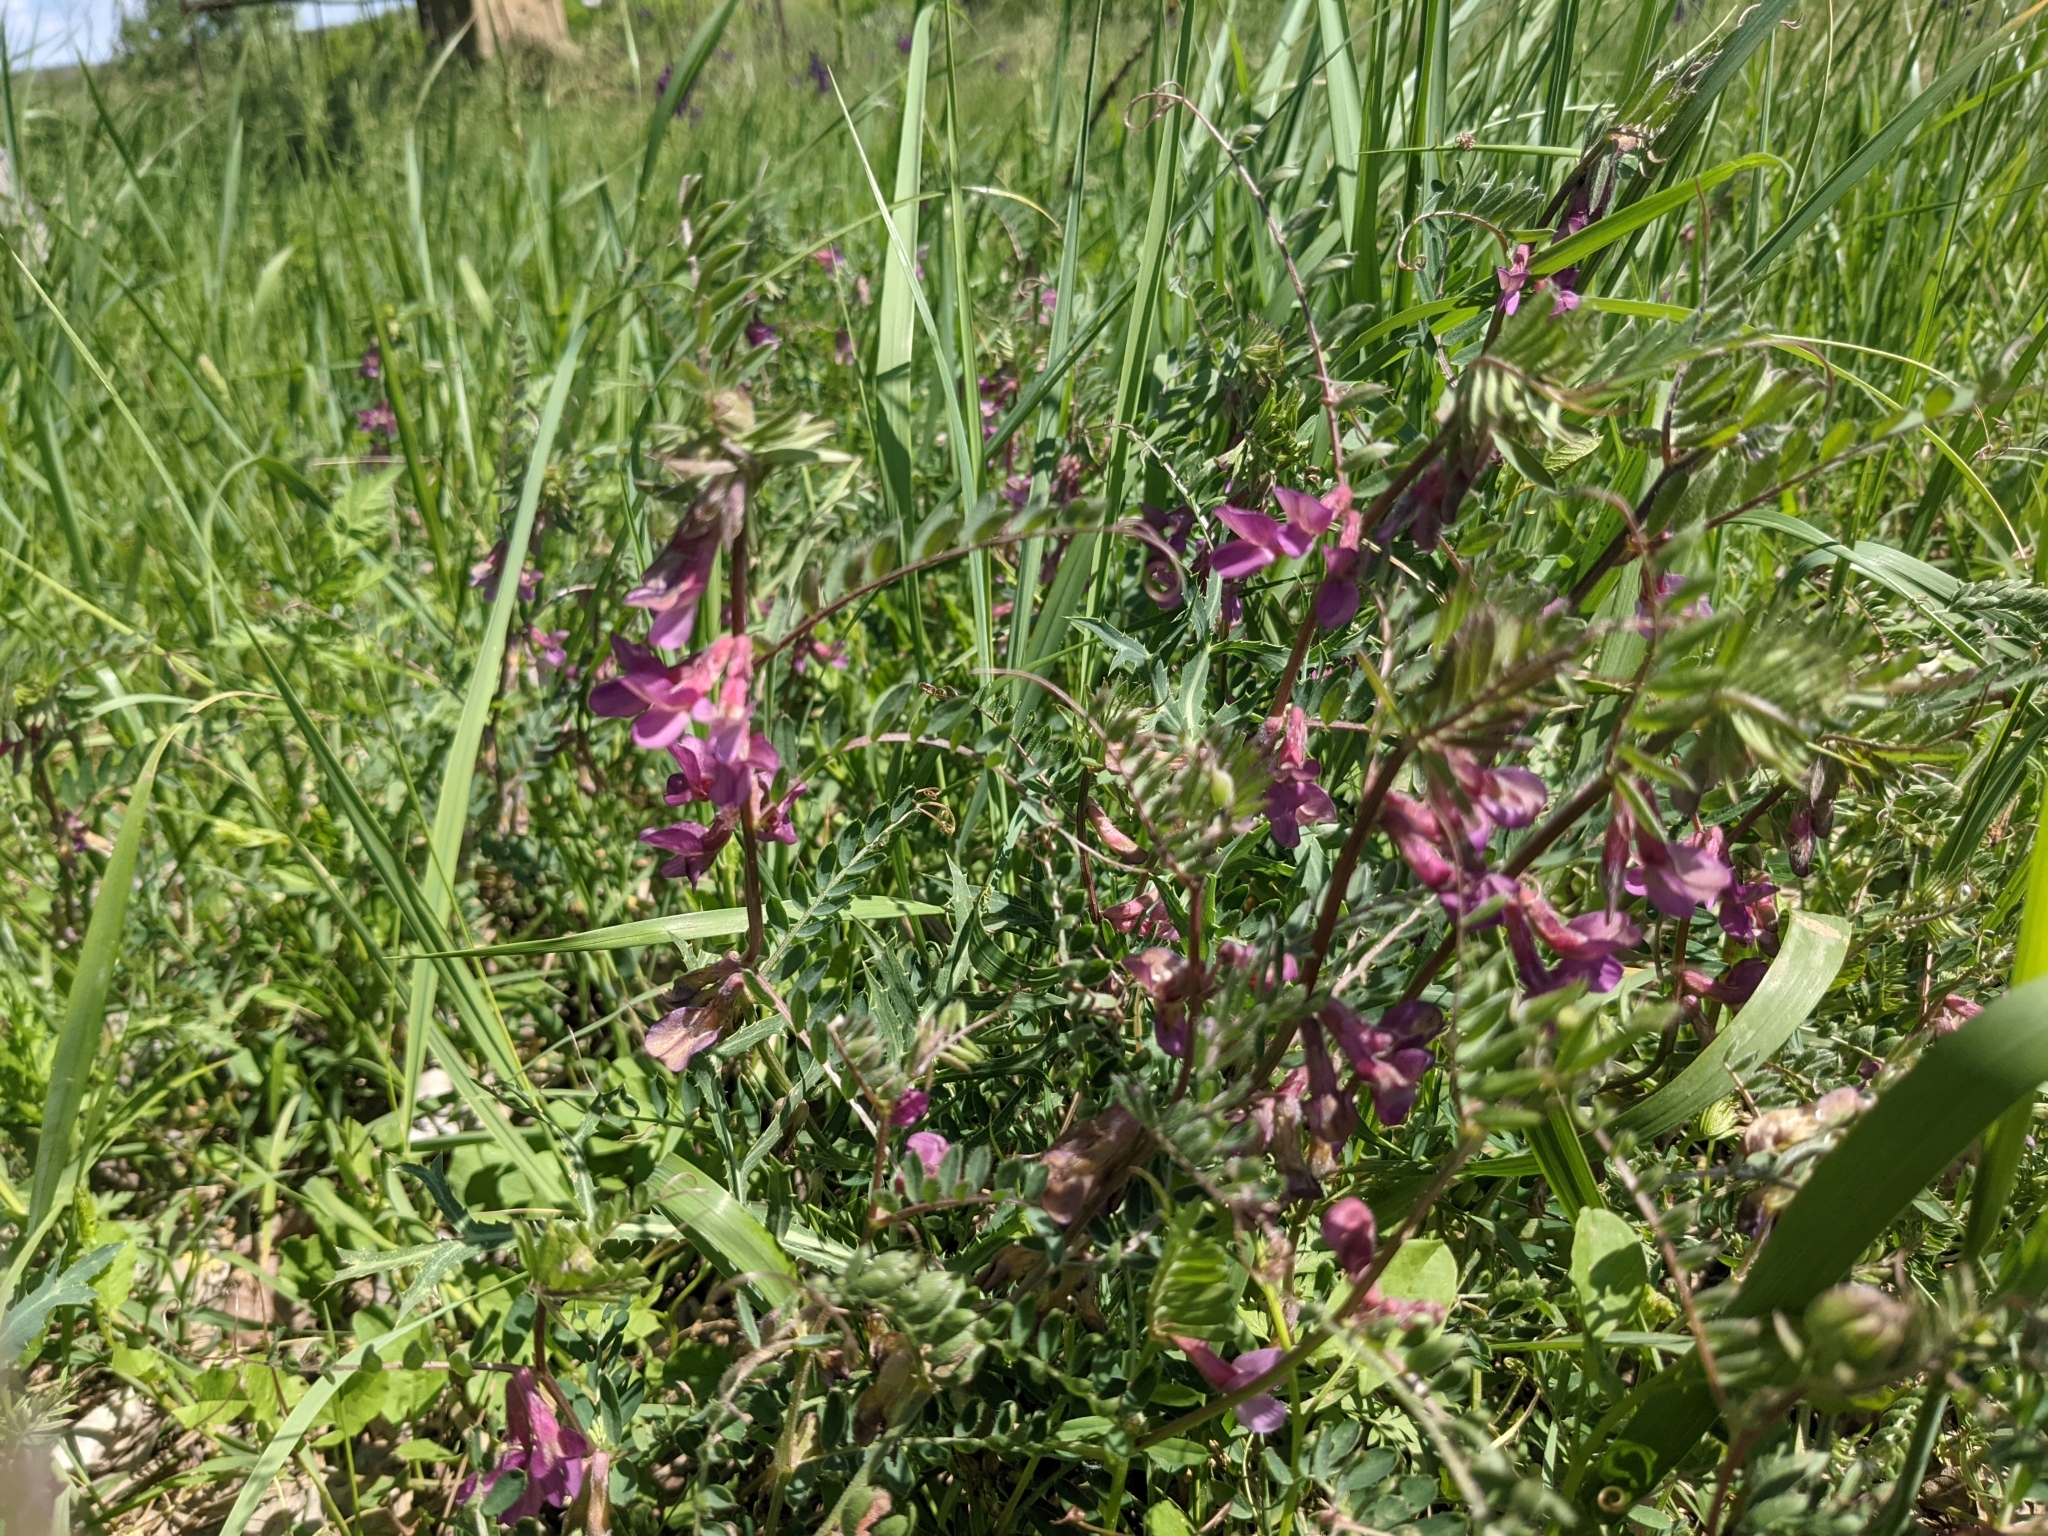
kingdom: Plantae
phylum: Tracheophyta
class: Magnoliopsida
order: Fabales
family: Fabaceae
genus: Vicia
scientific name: Vicia pannonica
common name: Hungarian vetch
